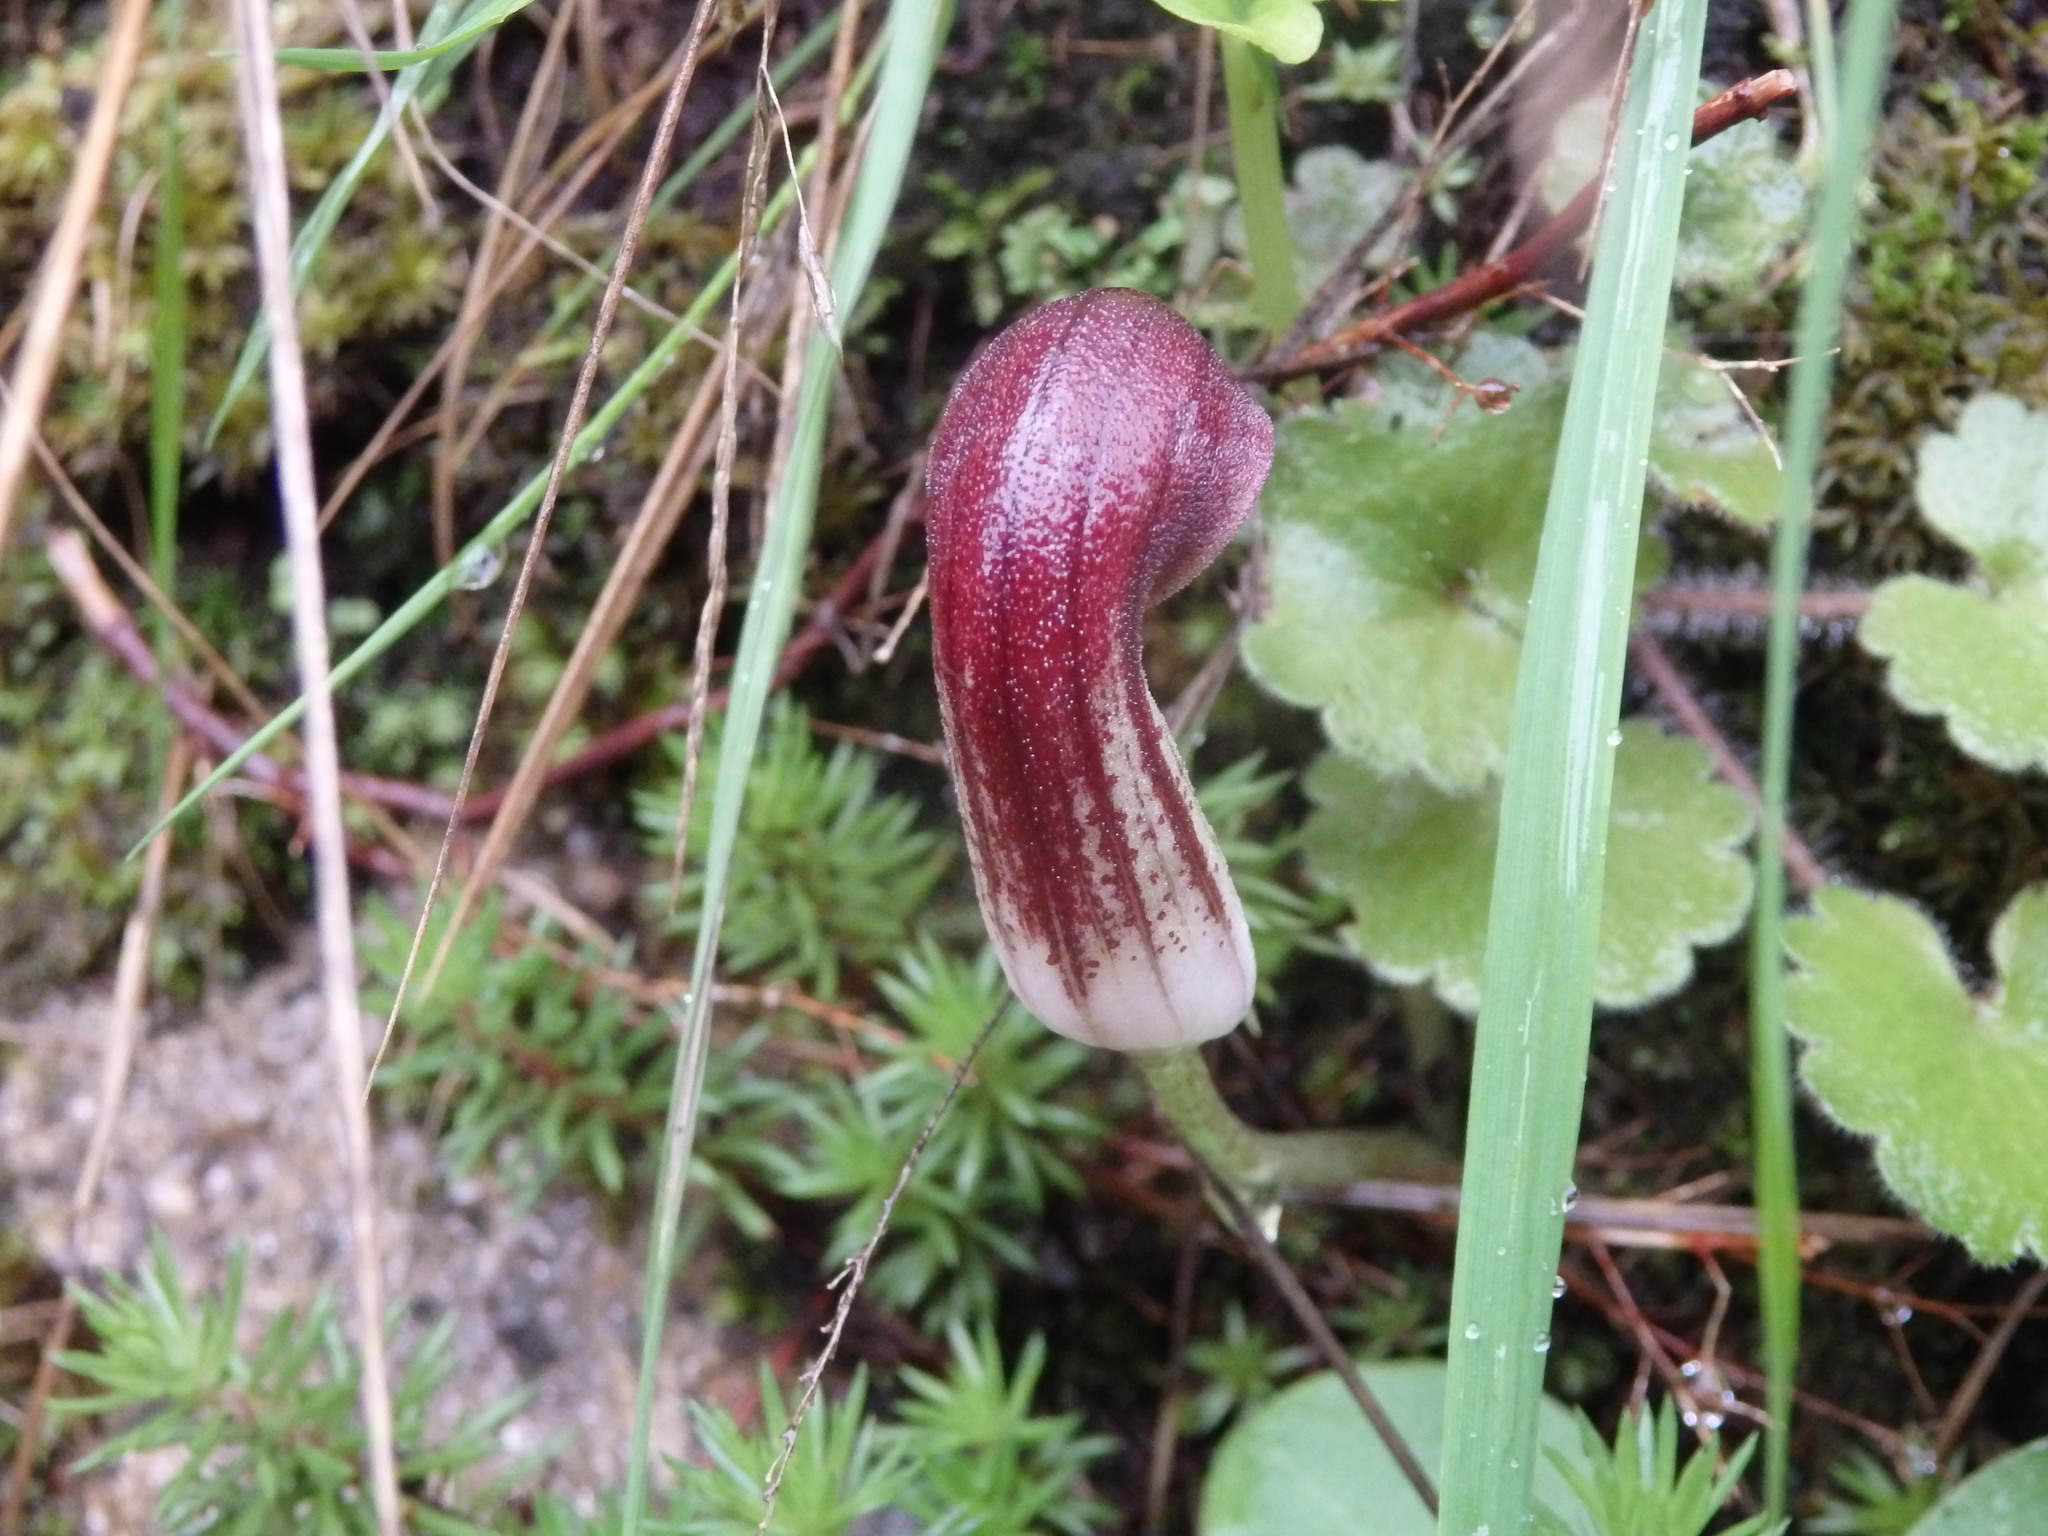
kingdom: Plantae
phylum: Tracheophyta
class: Liliopsida
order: Alismatales
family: Araceae
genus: Arisarum
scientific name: Arisarum simorrhinum
